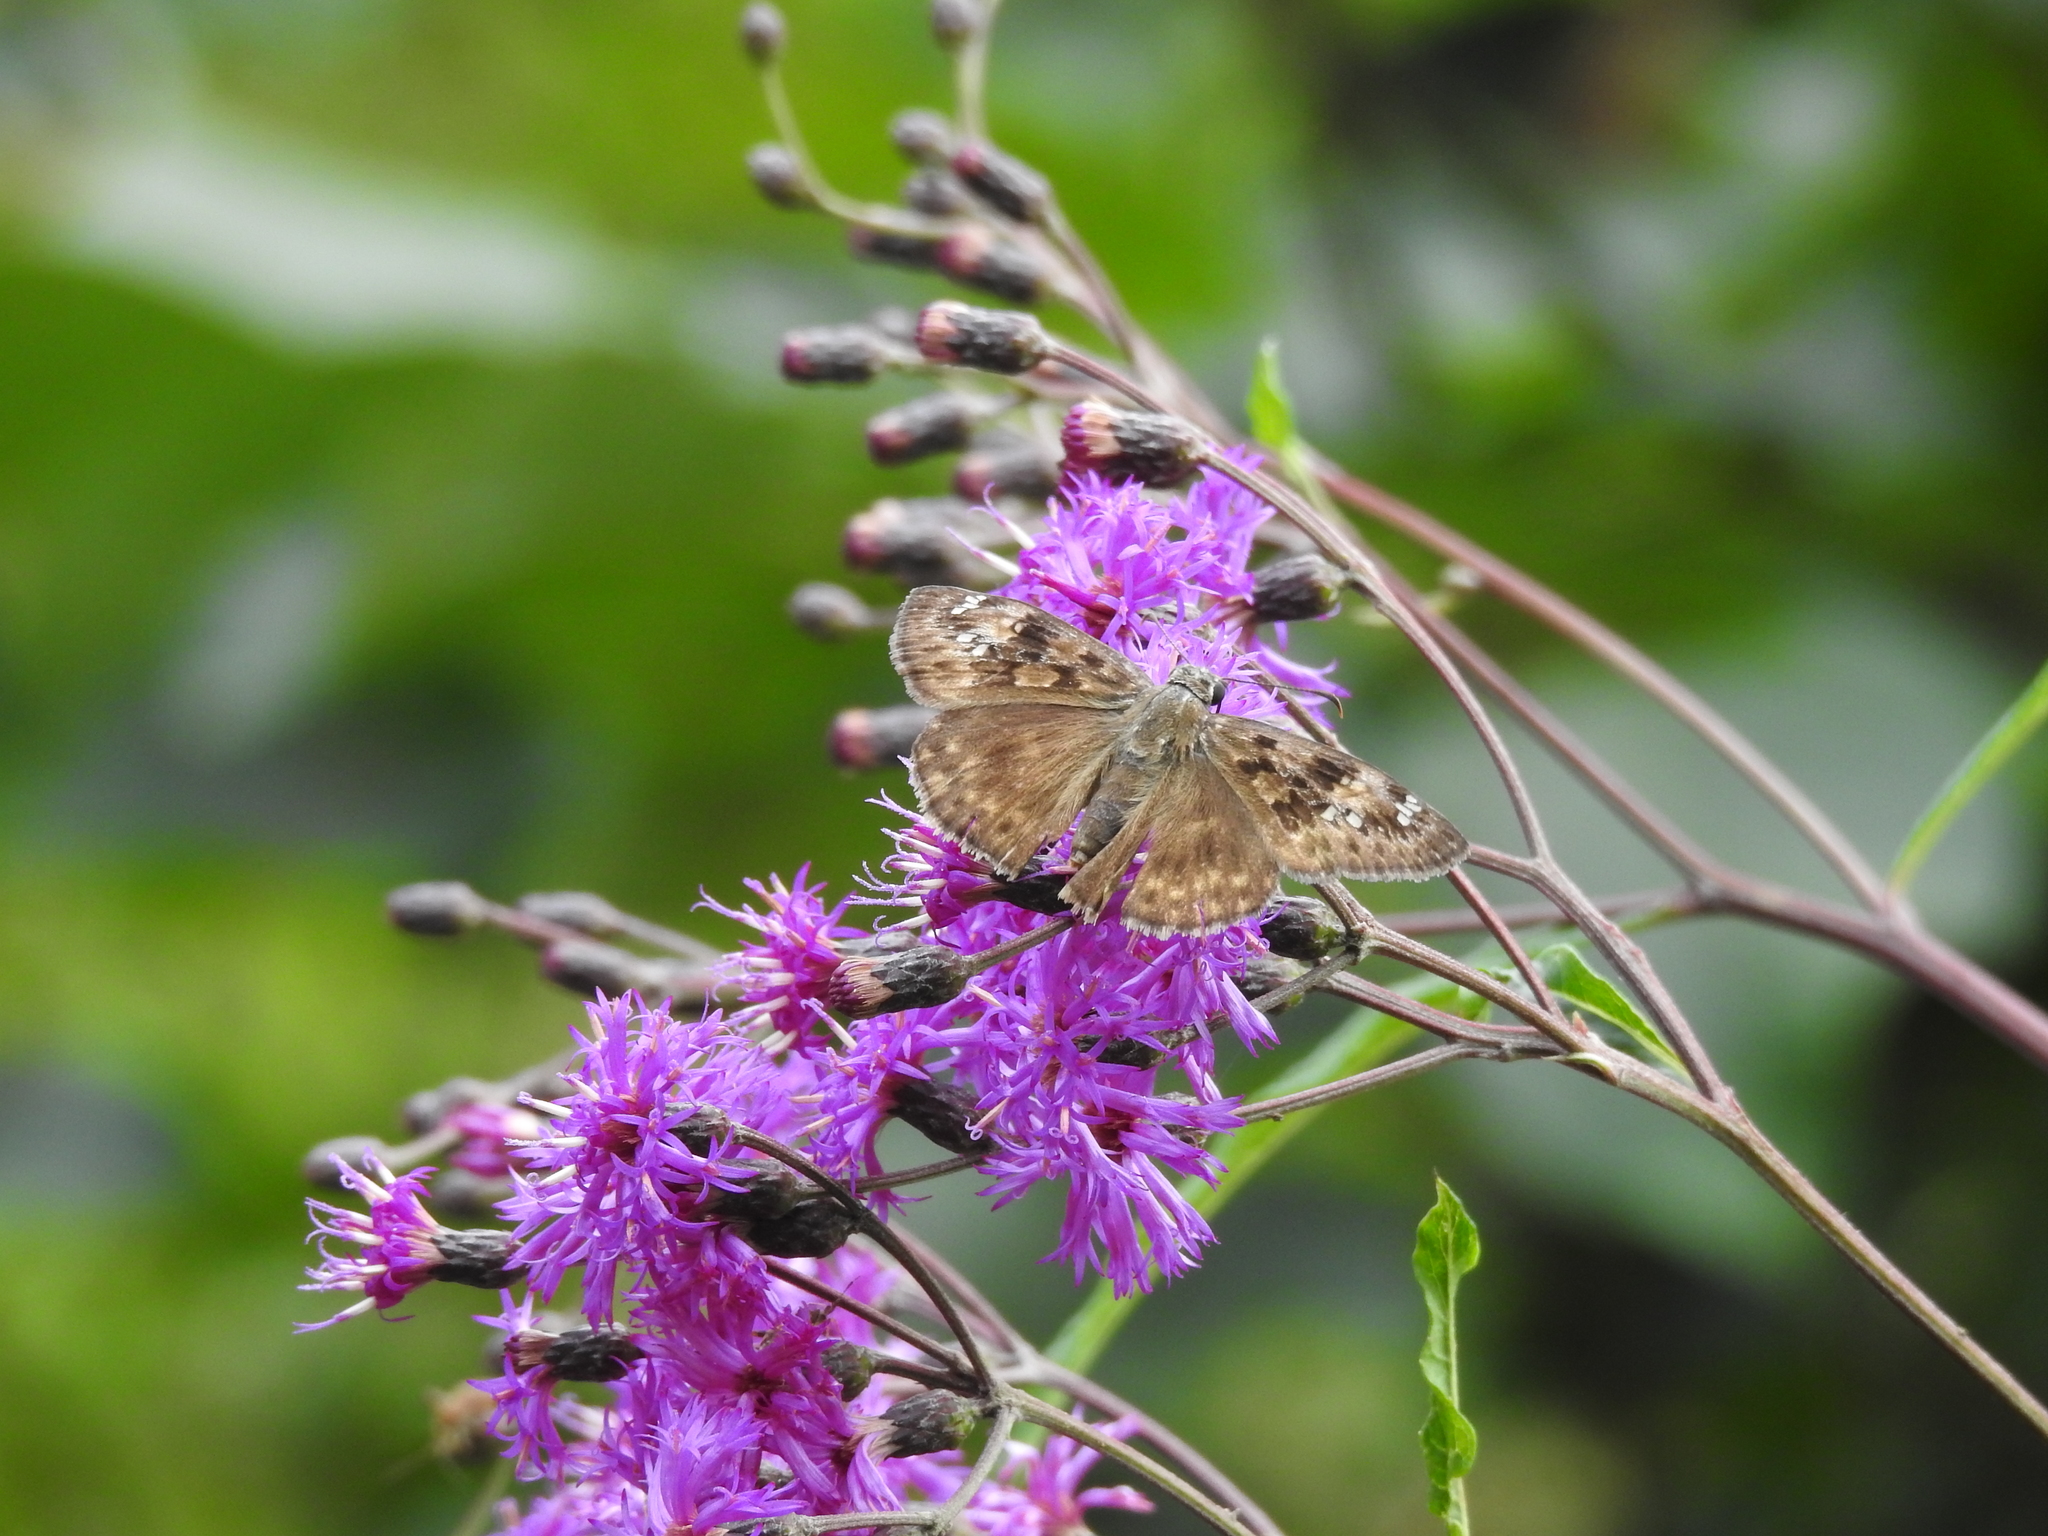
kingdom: Animalia
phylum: Arthropoda
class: Insecta
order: Lepidoptera
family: Hesperiidae
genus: Erynnis
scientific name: Erynnis horatius
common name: Horace's duskywing
